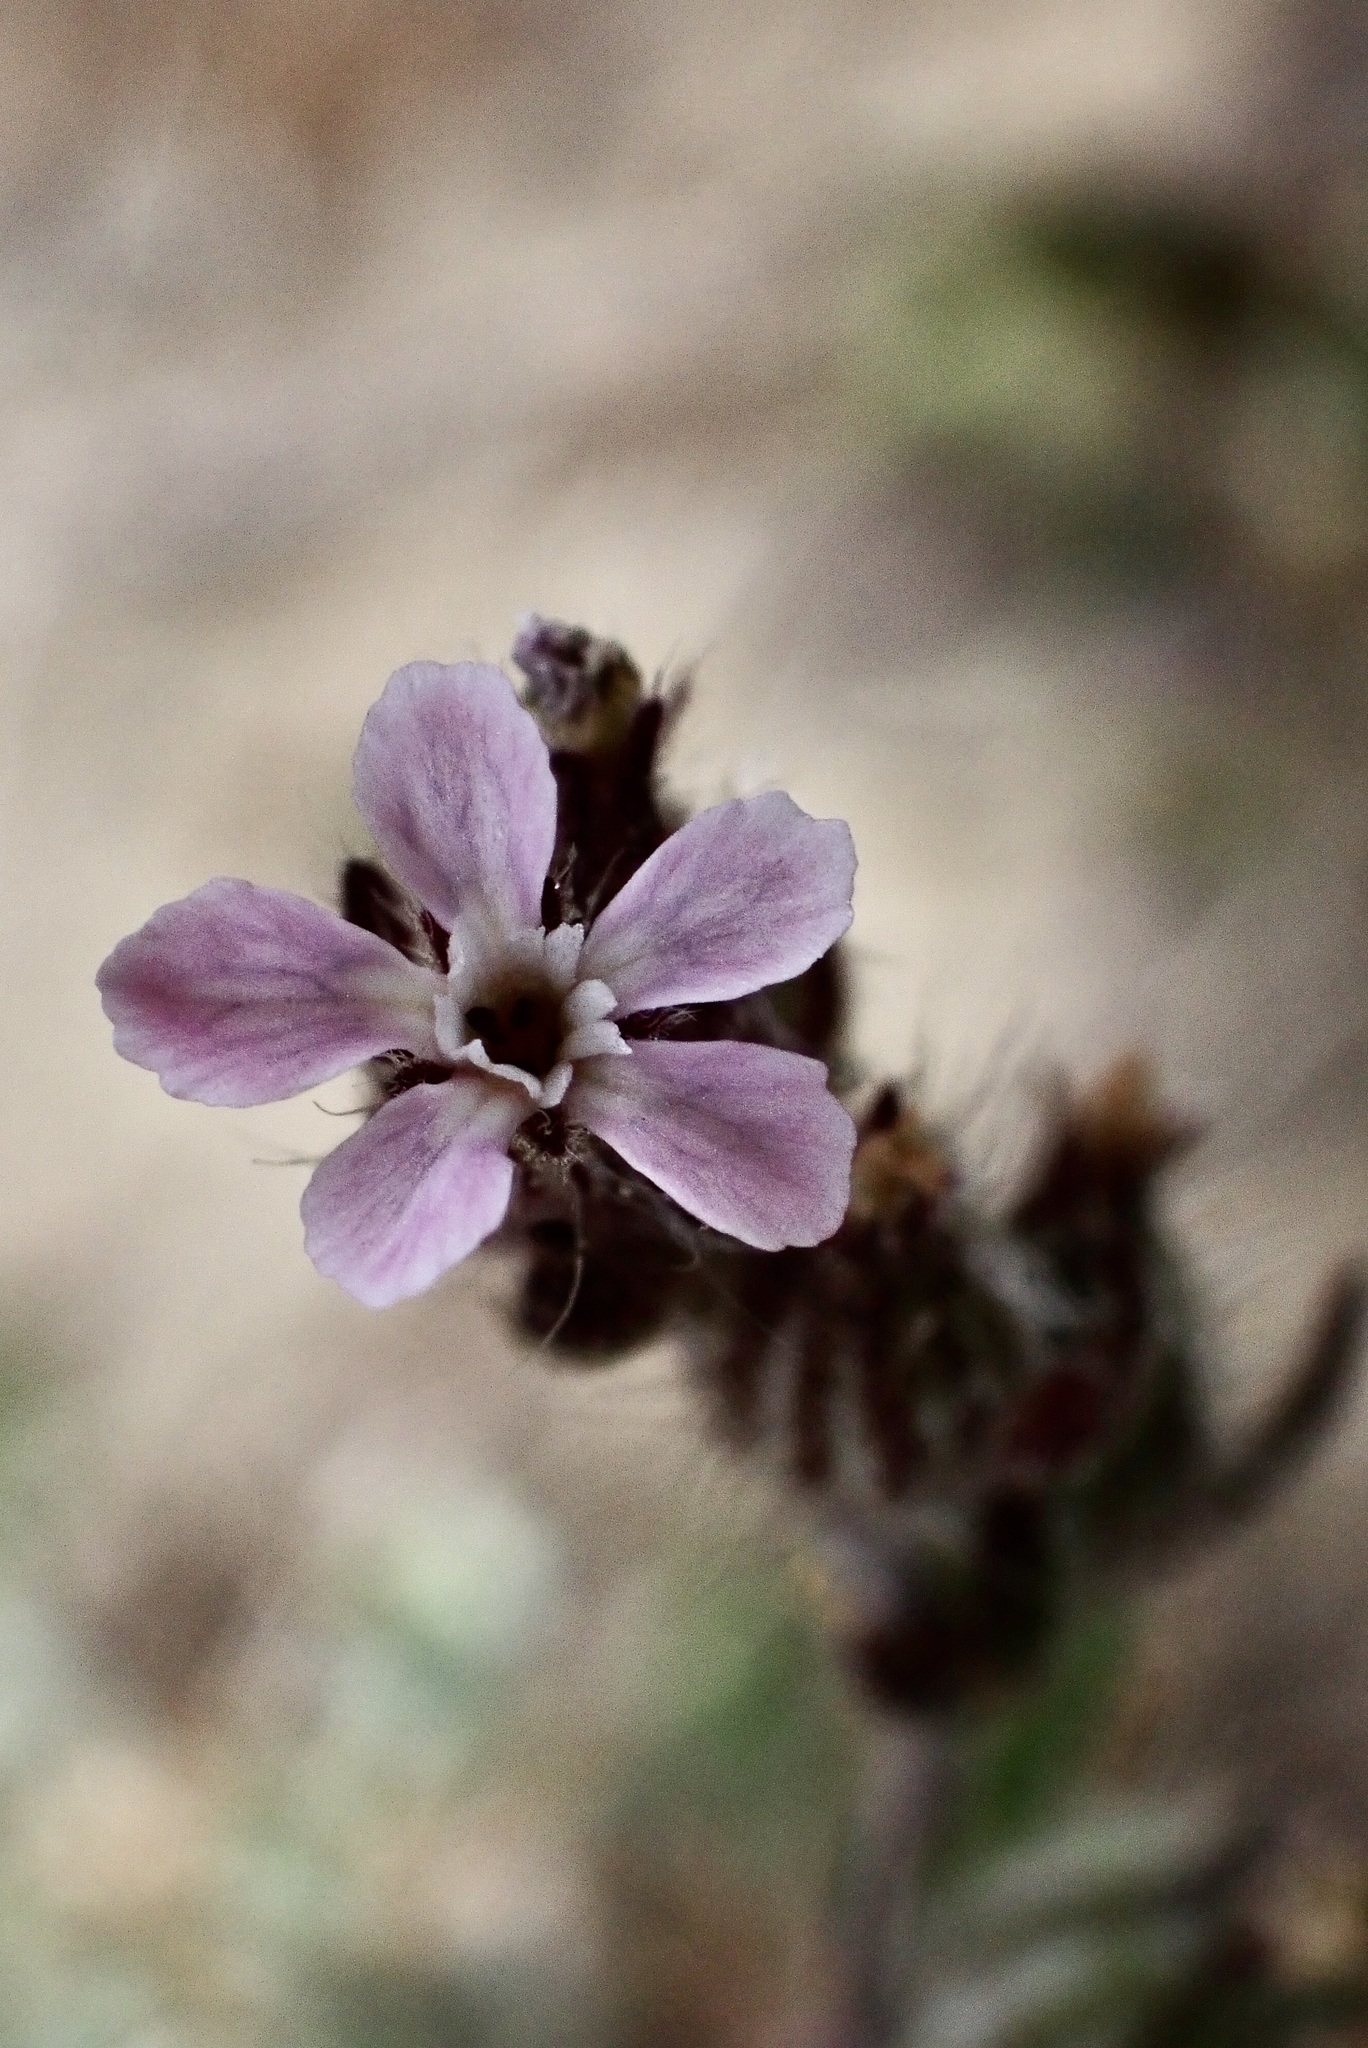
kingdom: Plantae
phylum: Tracheophyta
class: Magnoliopsida
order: Caryophyllales
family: Caryophyllaceae
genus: Silene
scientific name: Silene gallica
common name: Small-flowered catchfly
